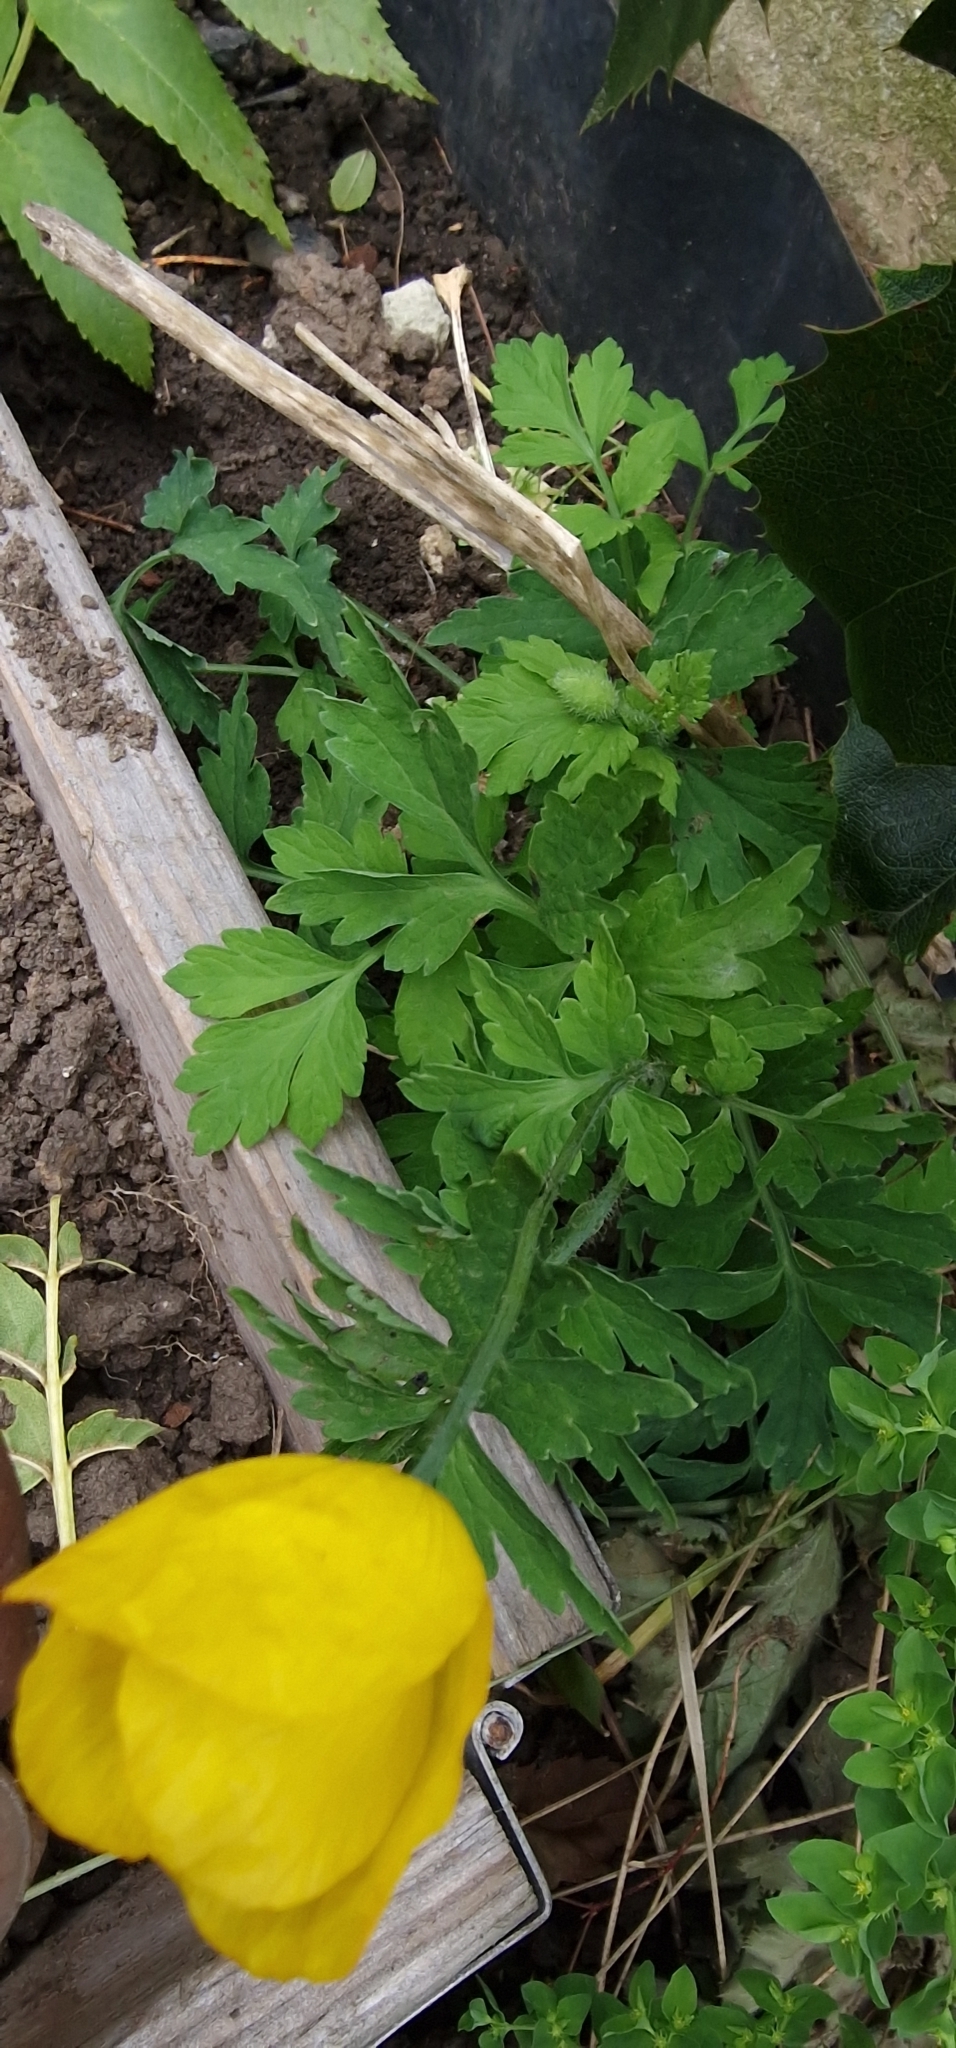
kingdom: Plantae
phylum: Tracheophyta
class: Magnoliopsida
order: Ranunculales
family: Papaveraceae
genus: Papaver
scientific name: Papaver cambricum
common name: Poppy
